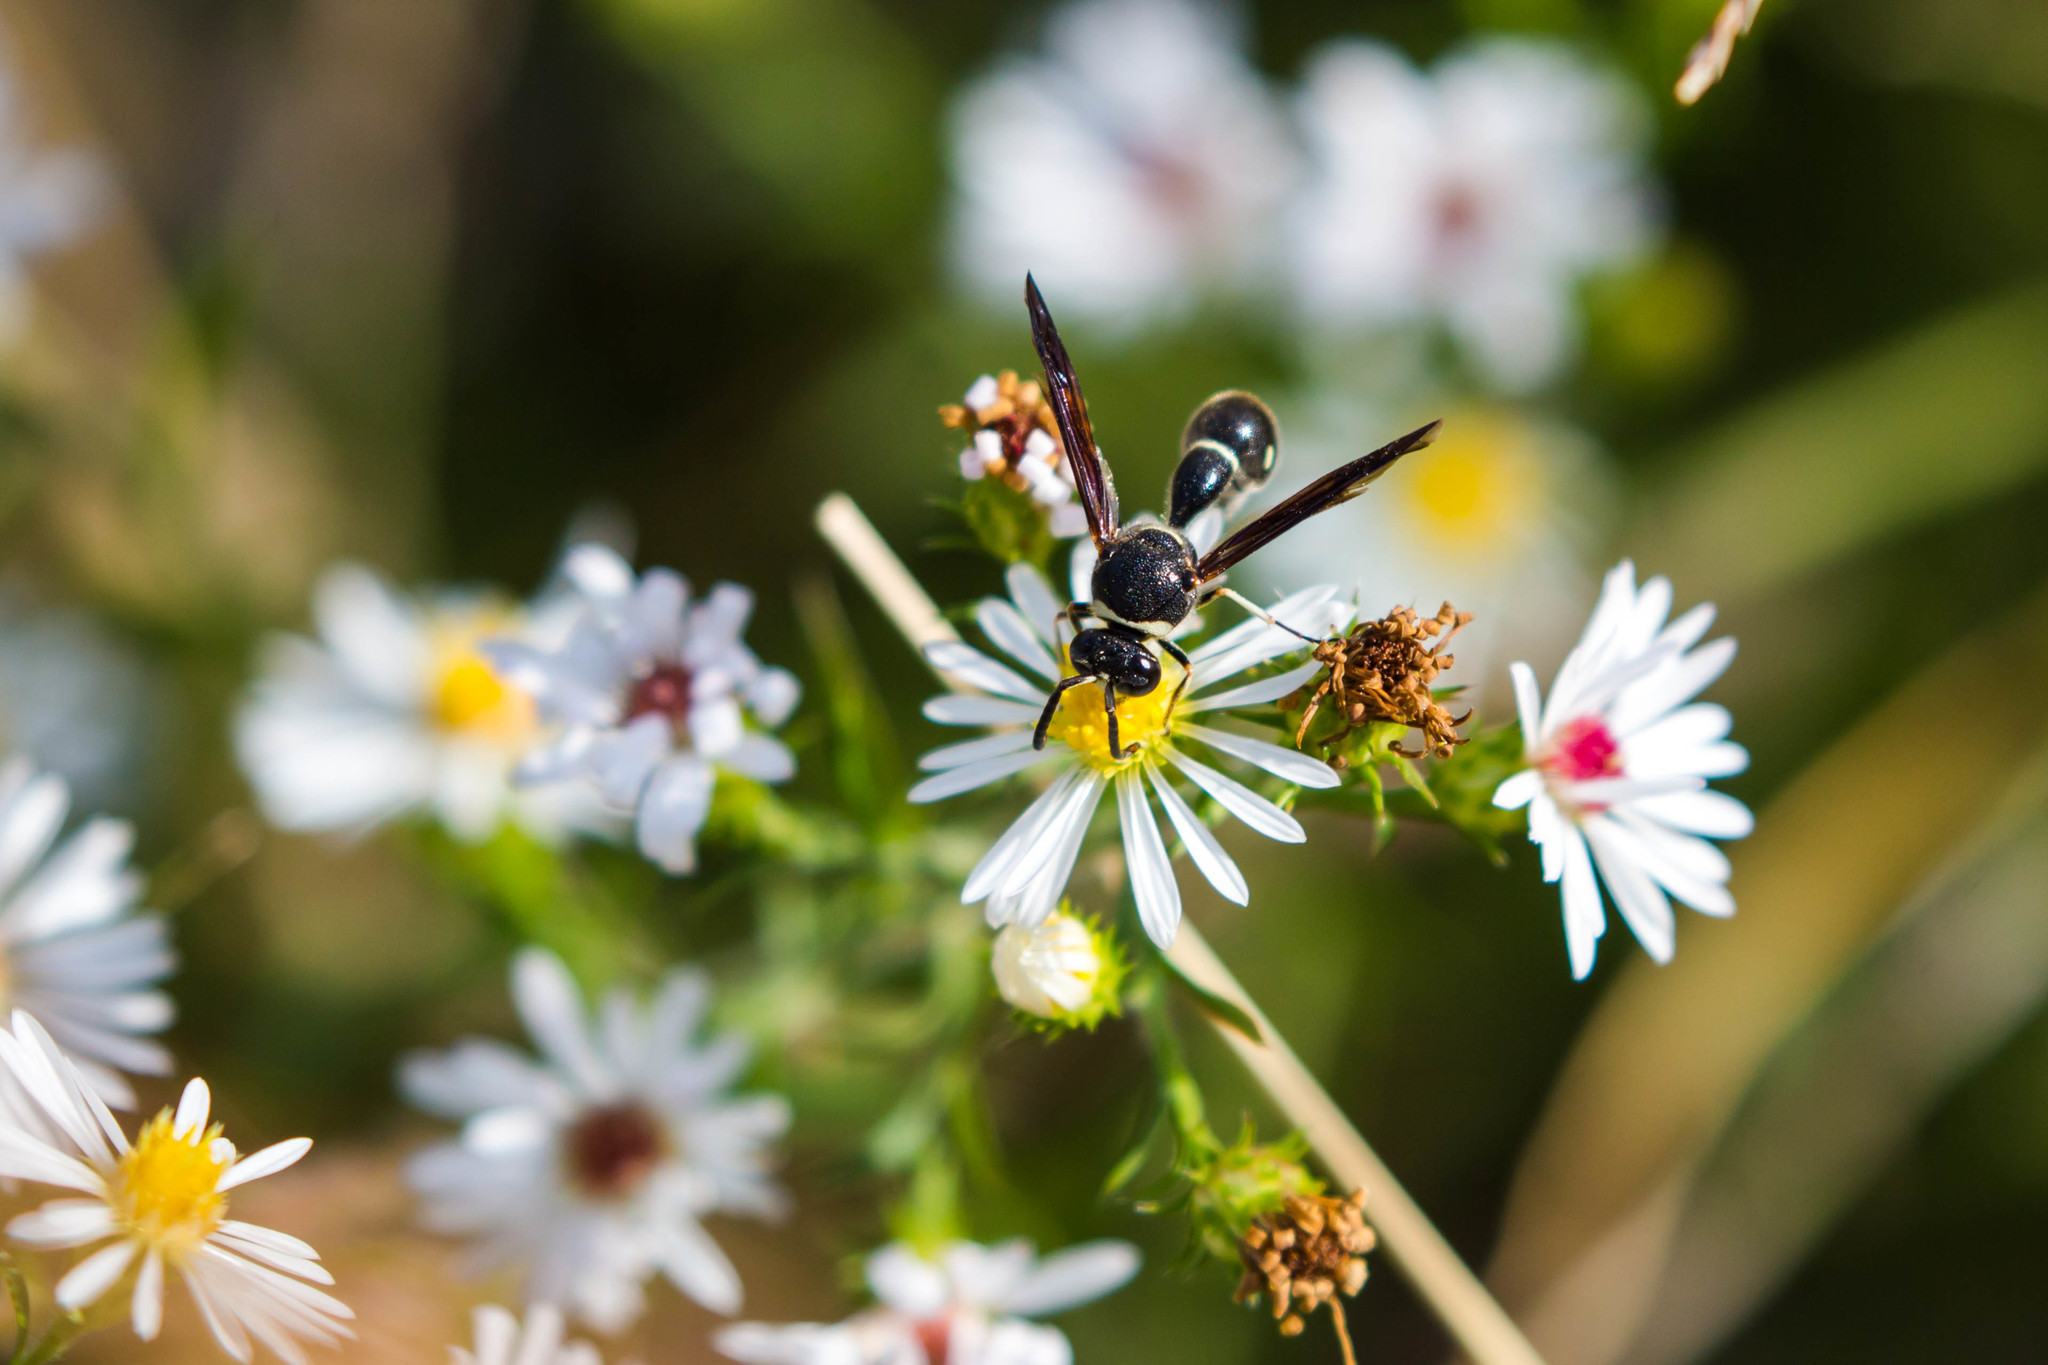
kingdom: Animalia
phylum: Arthropoda
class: Insecta
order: Hymenoptera
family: Vespidae
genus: Eumenes
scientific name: Eumenes fraternus
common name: Fraternal potter wasp
